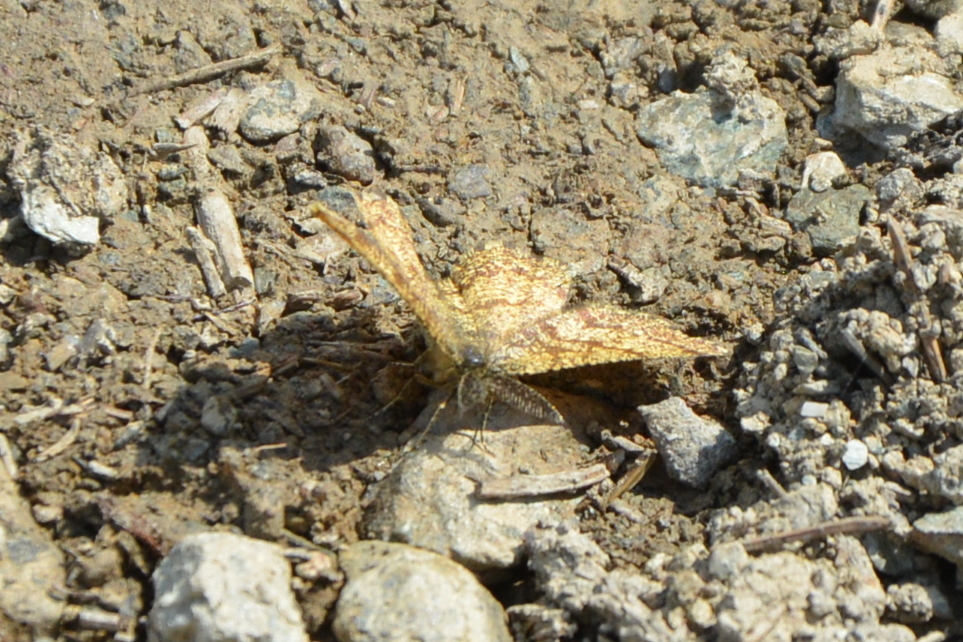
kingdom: Animalia
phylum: Arthropoda
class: Insecta
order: Lepidoptera
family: Geometridae
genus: Ematurga
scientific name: Ematurga atomaria
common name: Common heath
